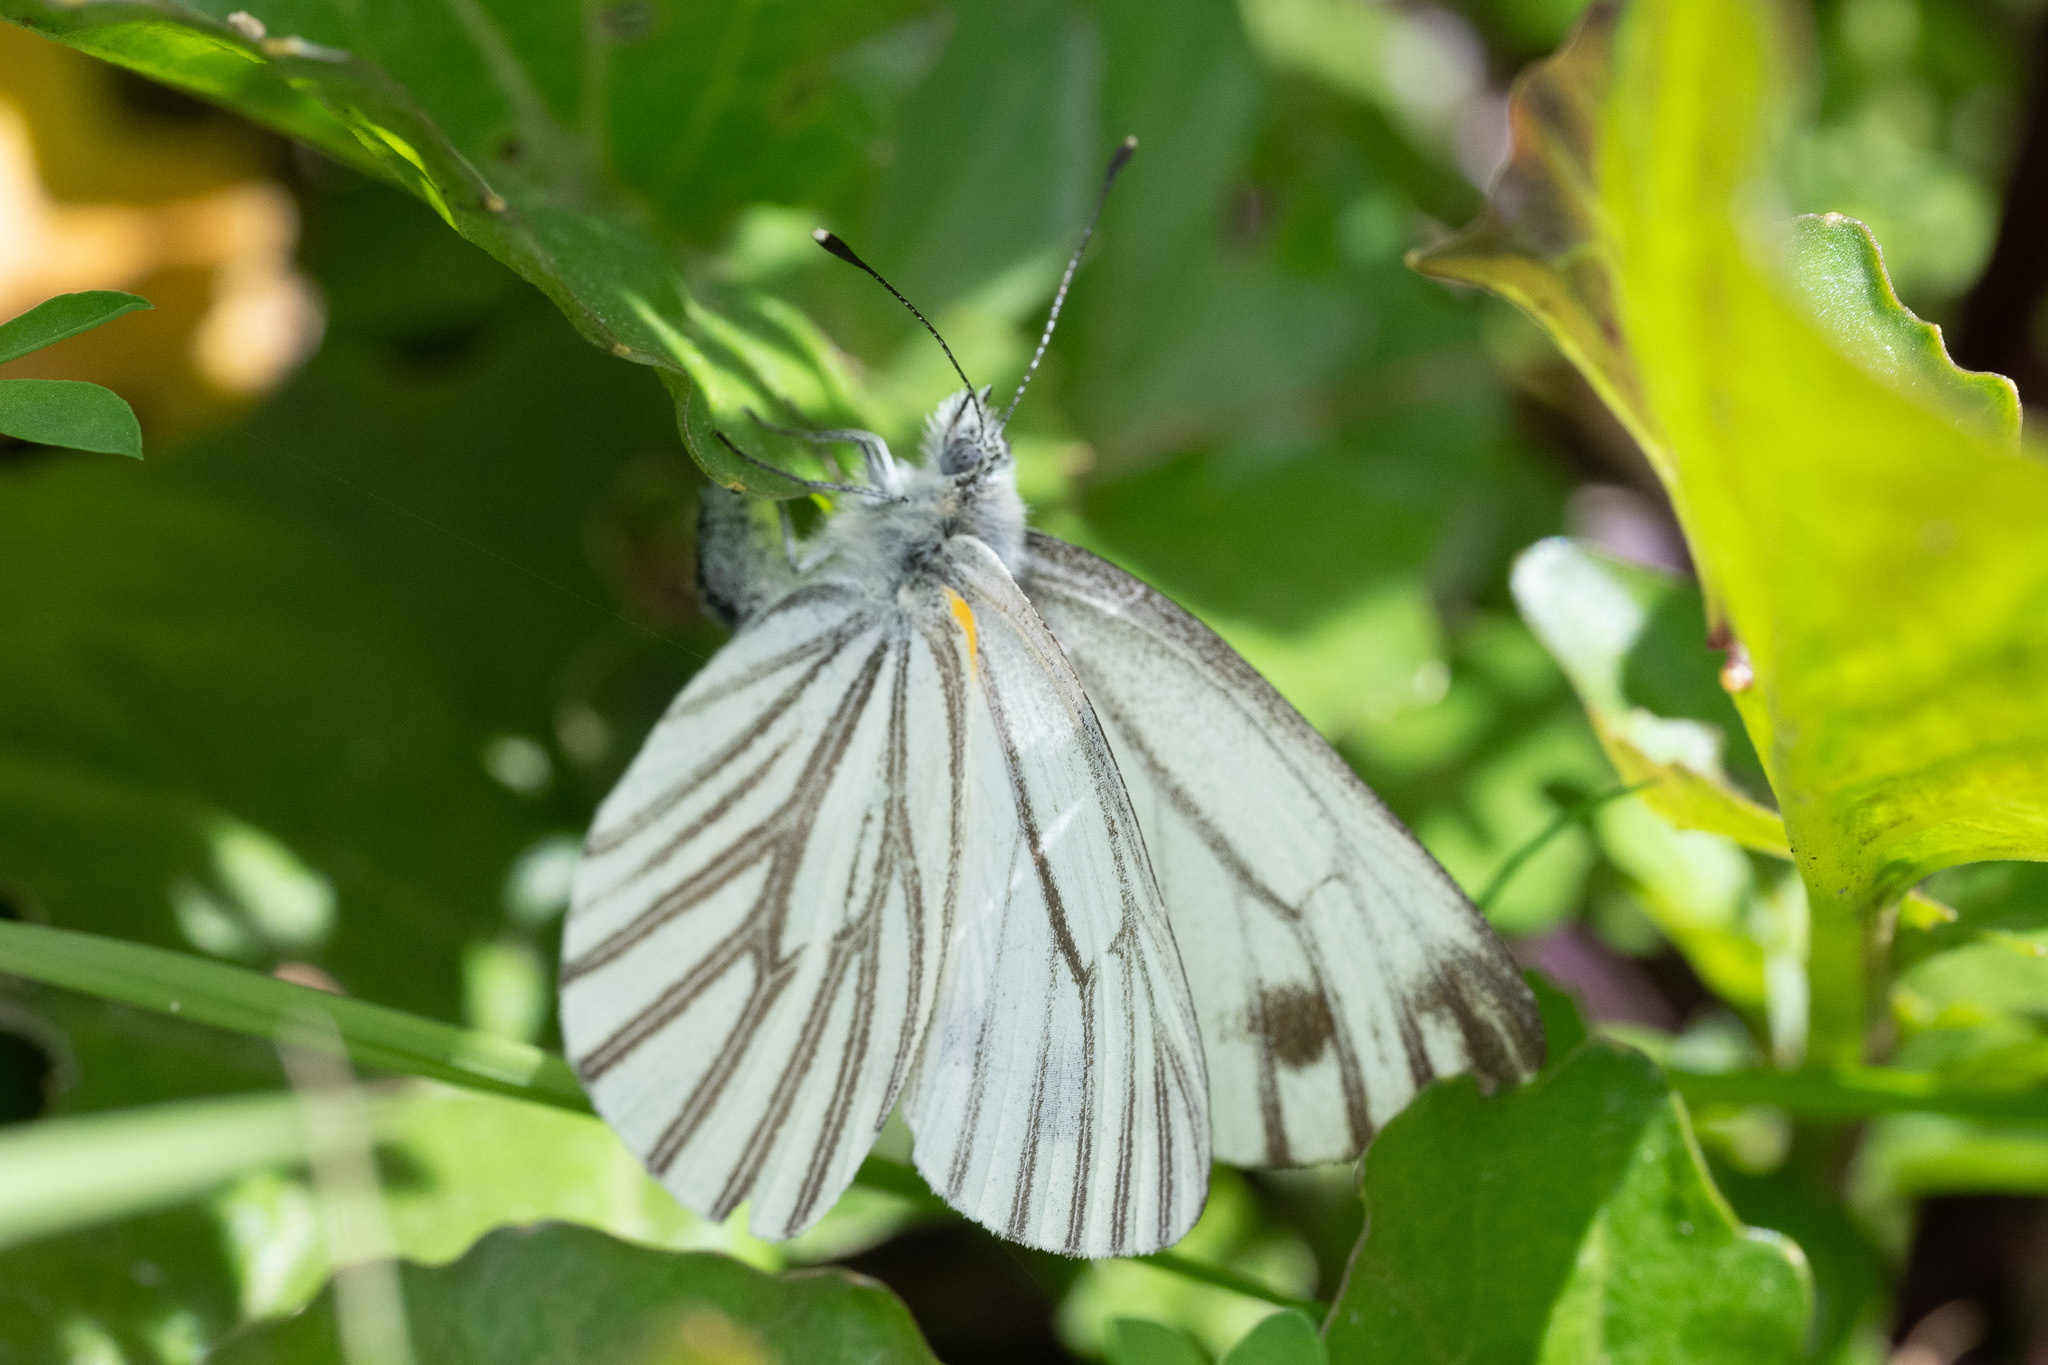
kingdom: Animalia
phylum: Arthropoda
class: Insecta
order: Lepidoptera
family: Pieridae
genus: Pieris
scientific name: Pieris marginalis
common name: Margined white
